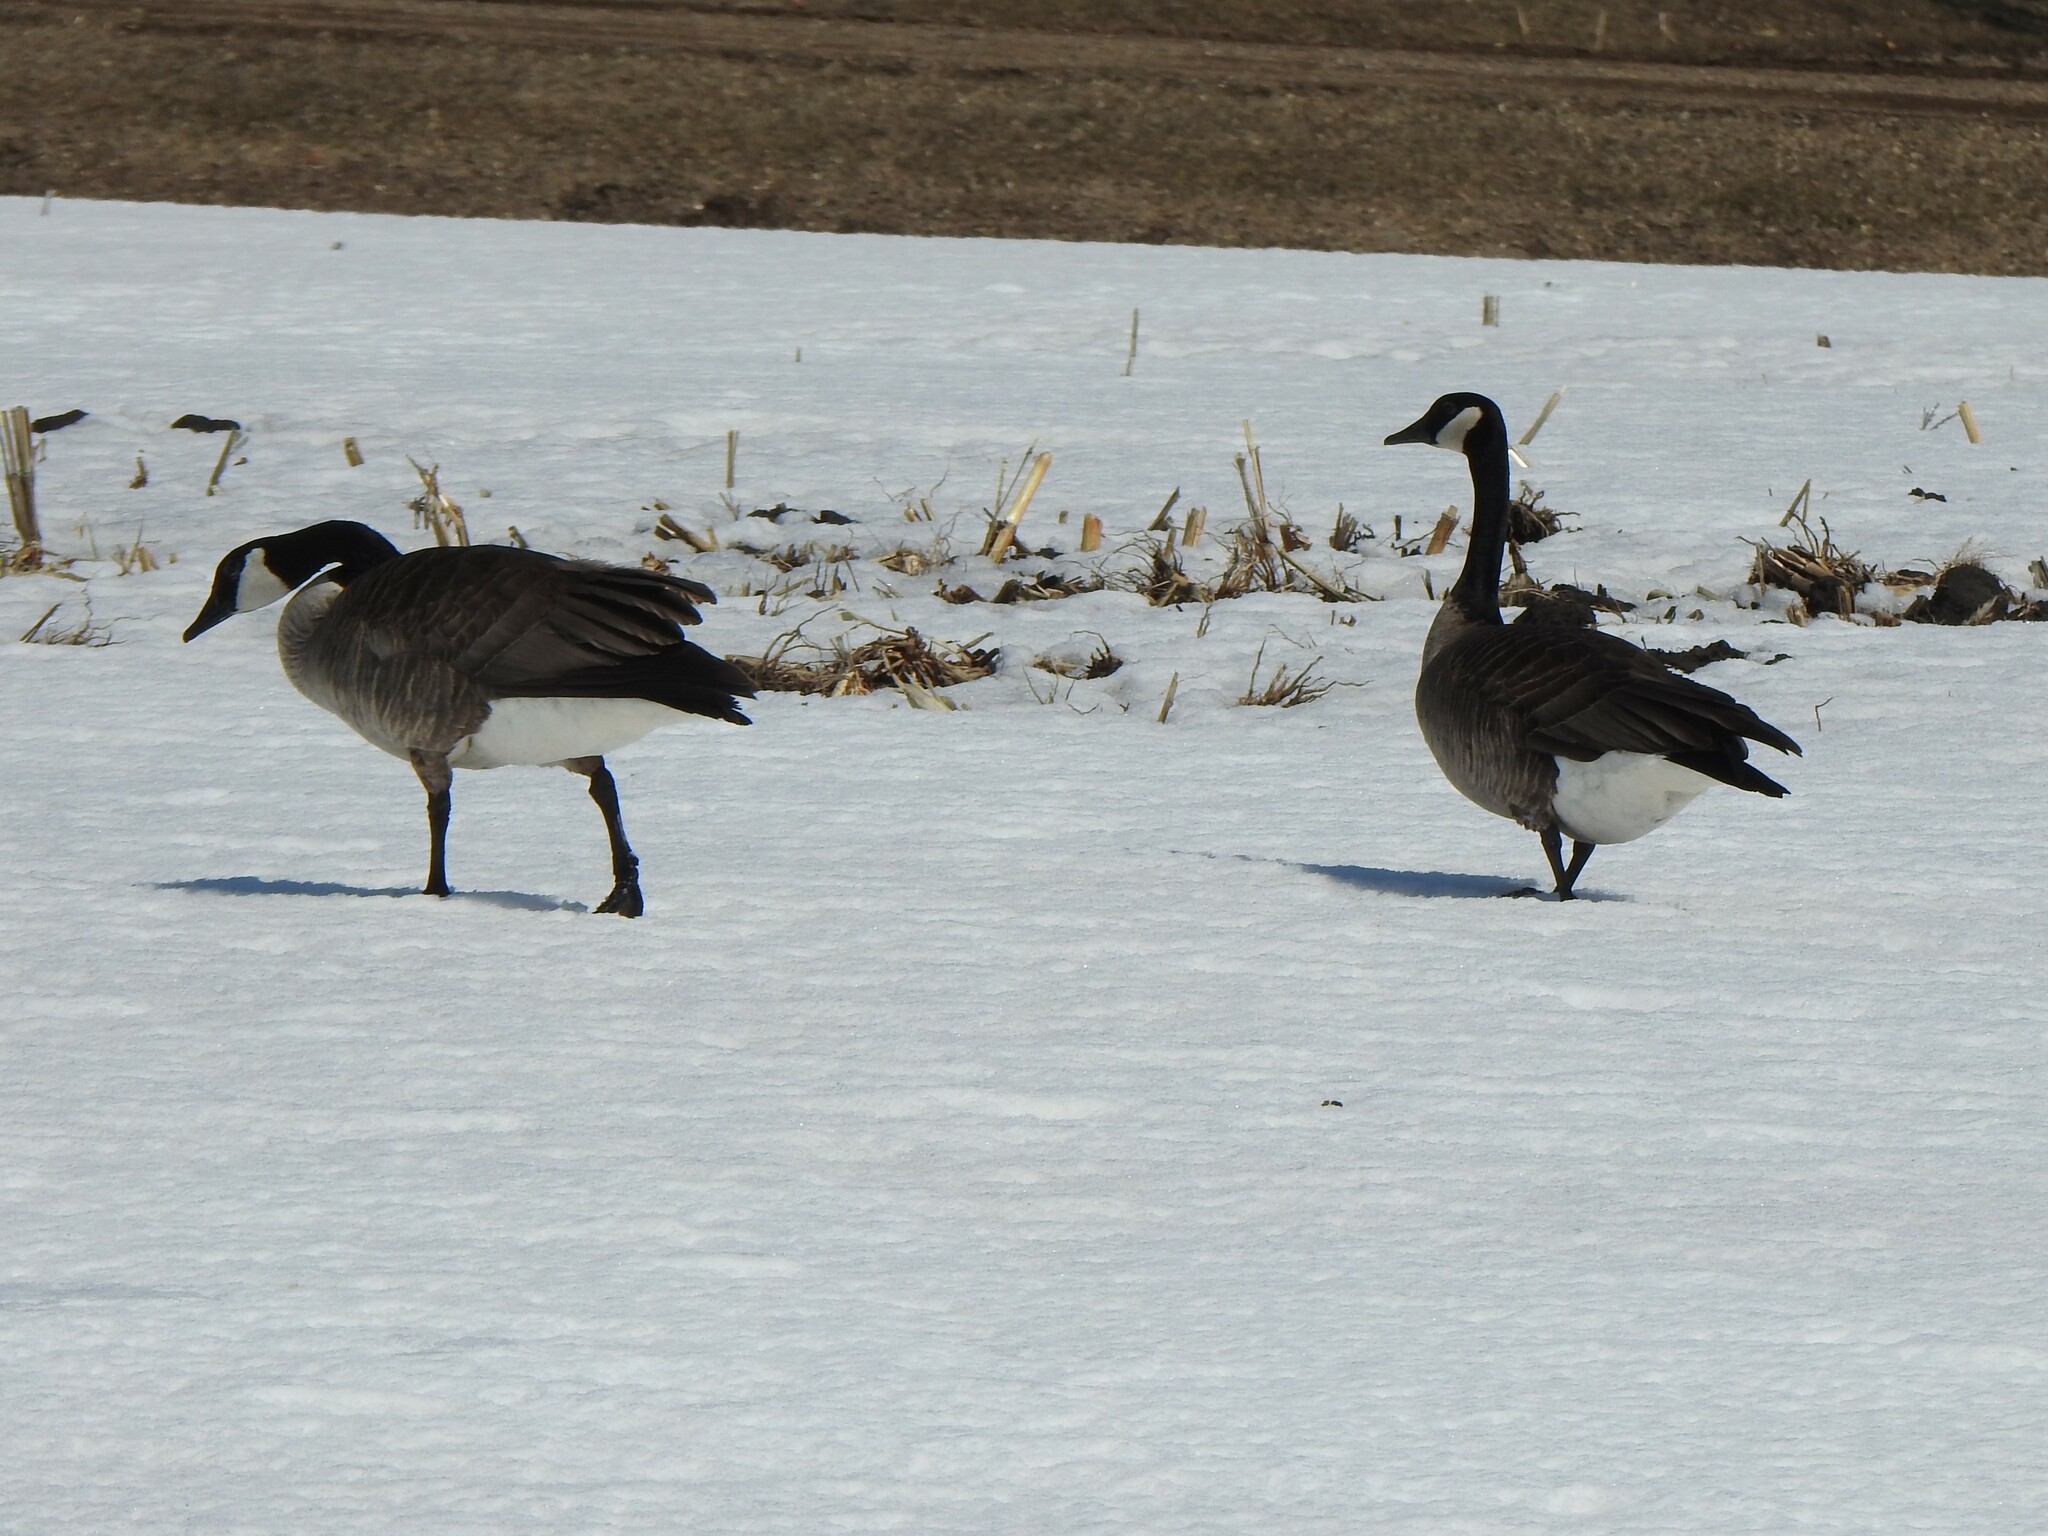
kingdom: Animalia
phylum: Chordata
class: Aves
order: Anseriformes
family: Anatidae
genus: Branta
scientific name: Branta canadensis
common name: Canada goose
